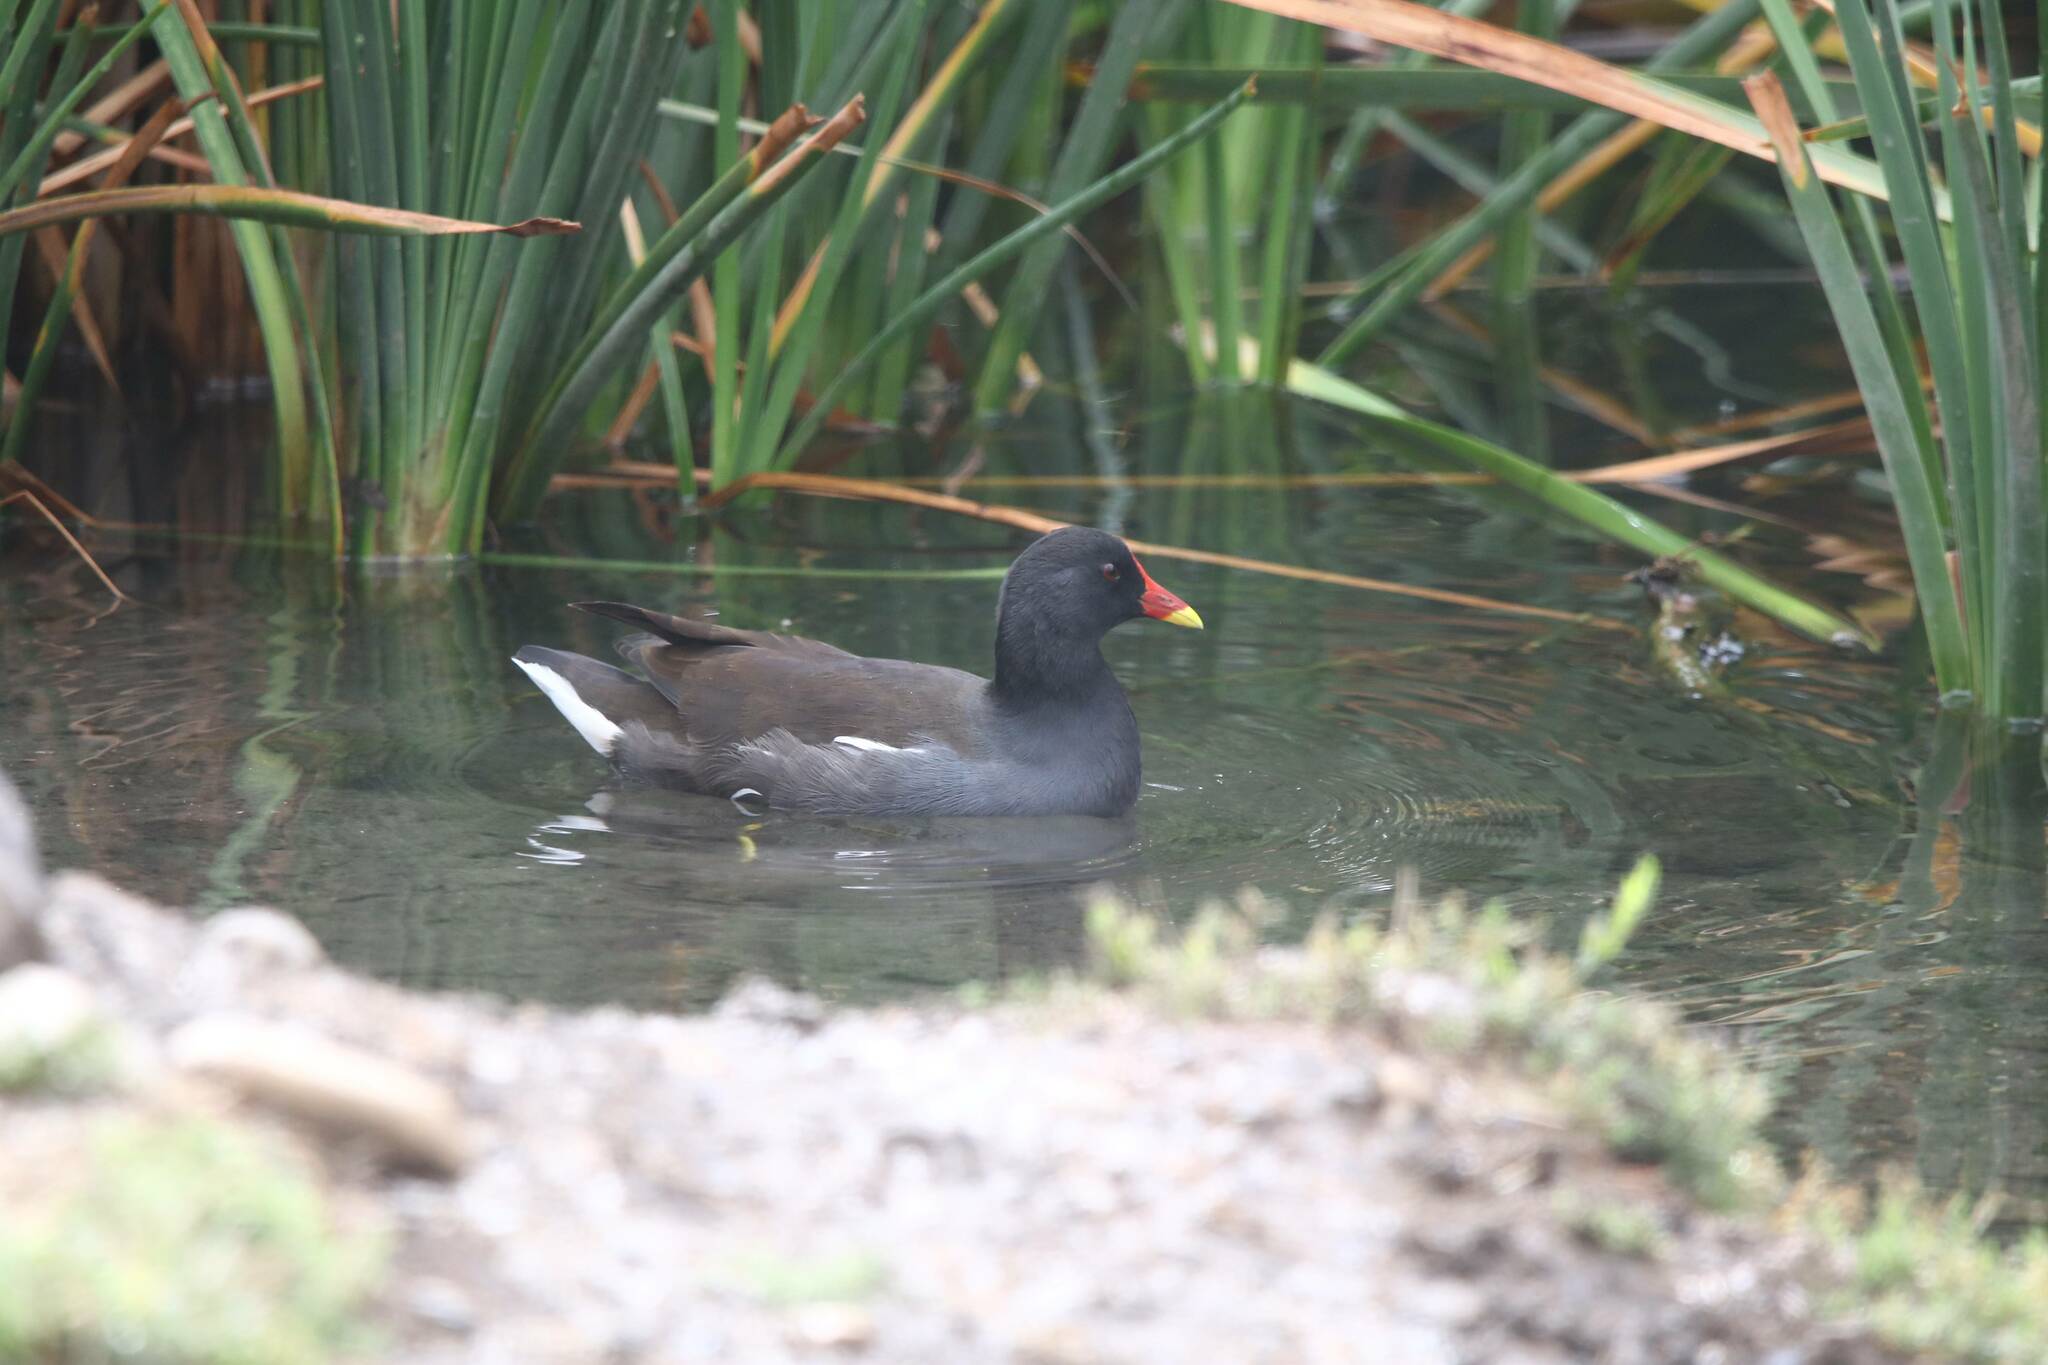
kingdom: Animalia
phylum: Chordata
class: Aves
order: Gruiformes
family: Rallidae
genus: Gallinula
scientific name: Gallinula chloropus
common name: Common moorhen
